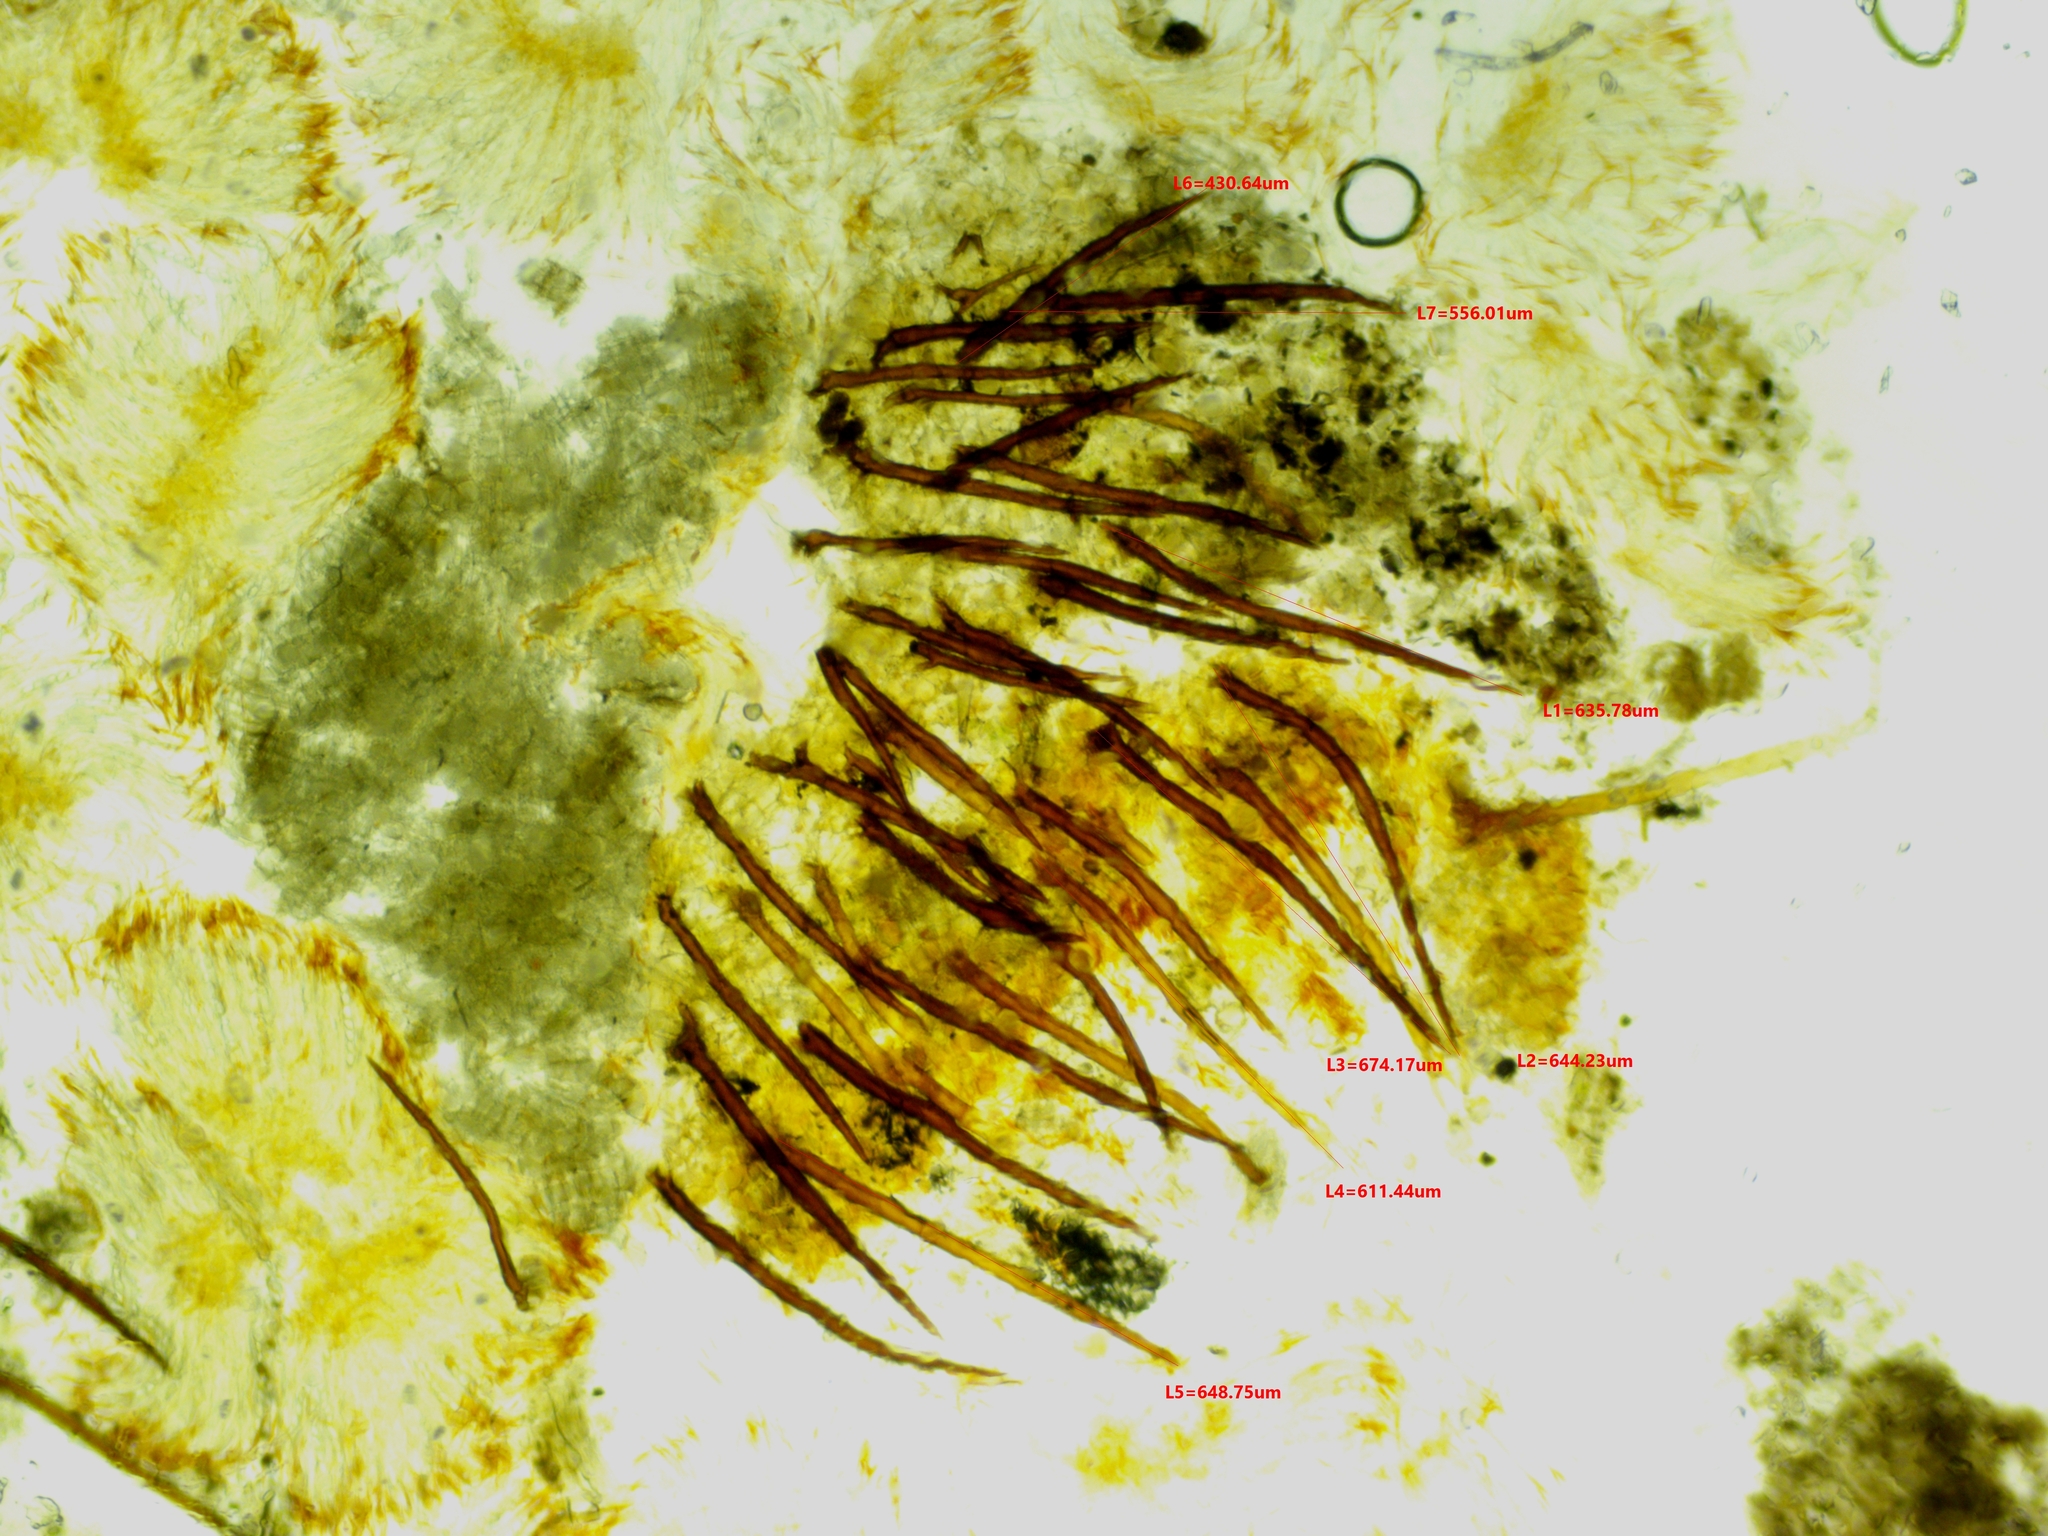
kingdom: Fungi
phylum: Ascomycota
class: Pezizomycetes
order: Pezizales
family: Pyronemataceae
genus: Scutellinia
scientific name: Scutellinia setosa
